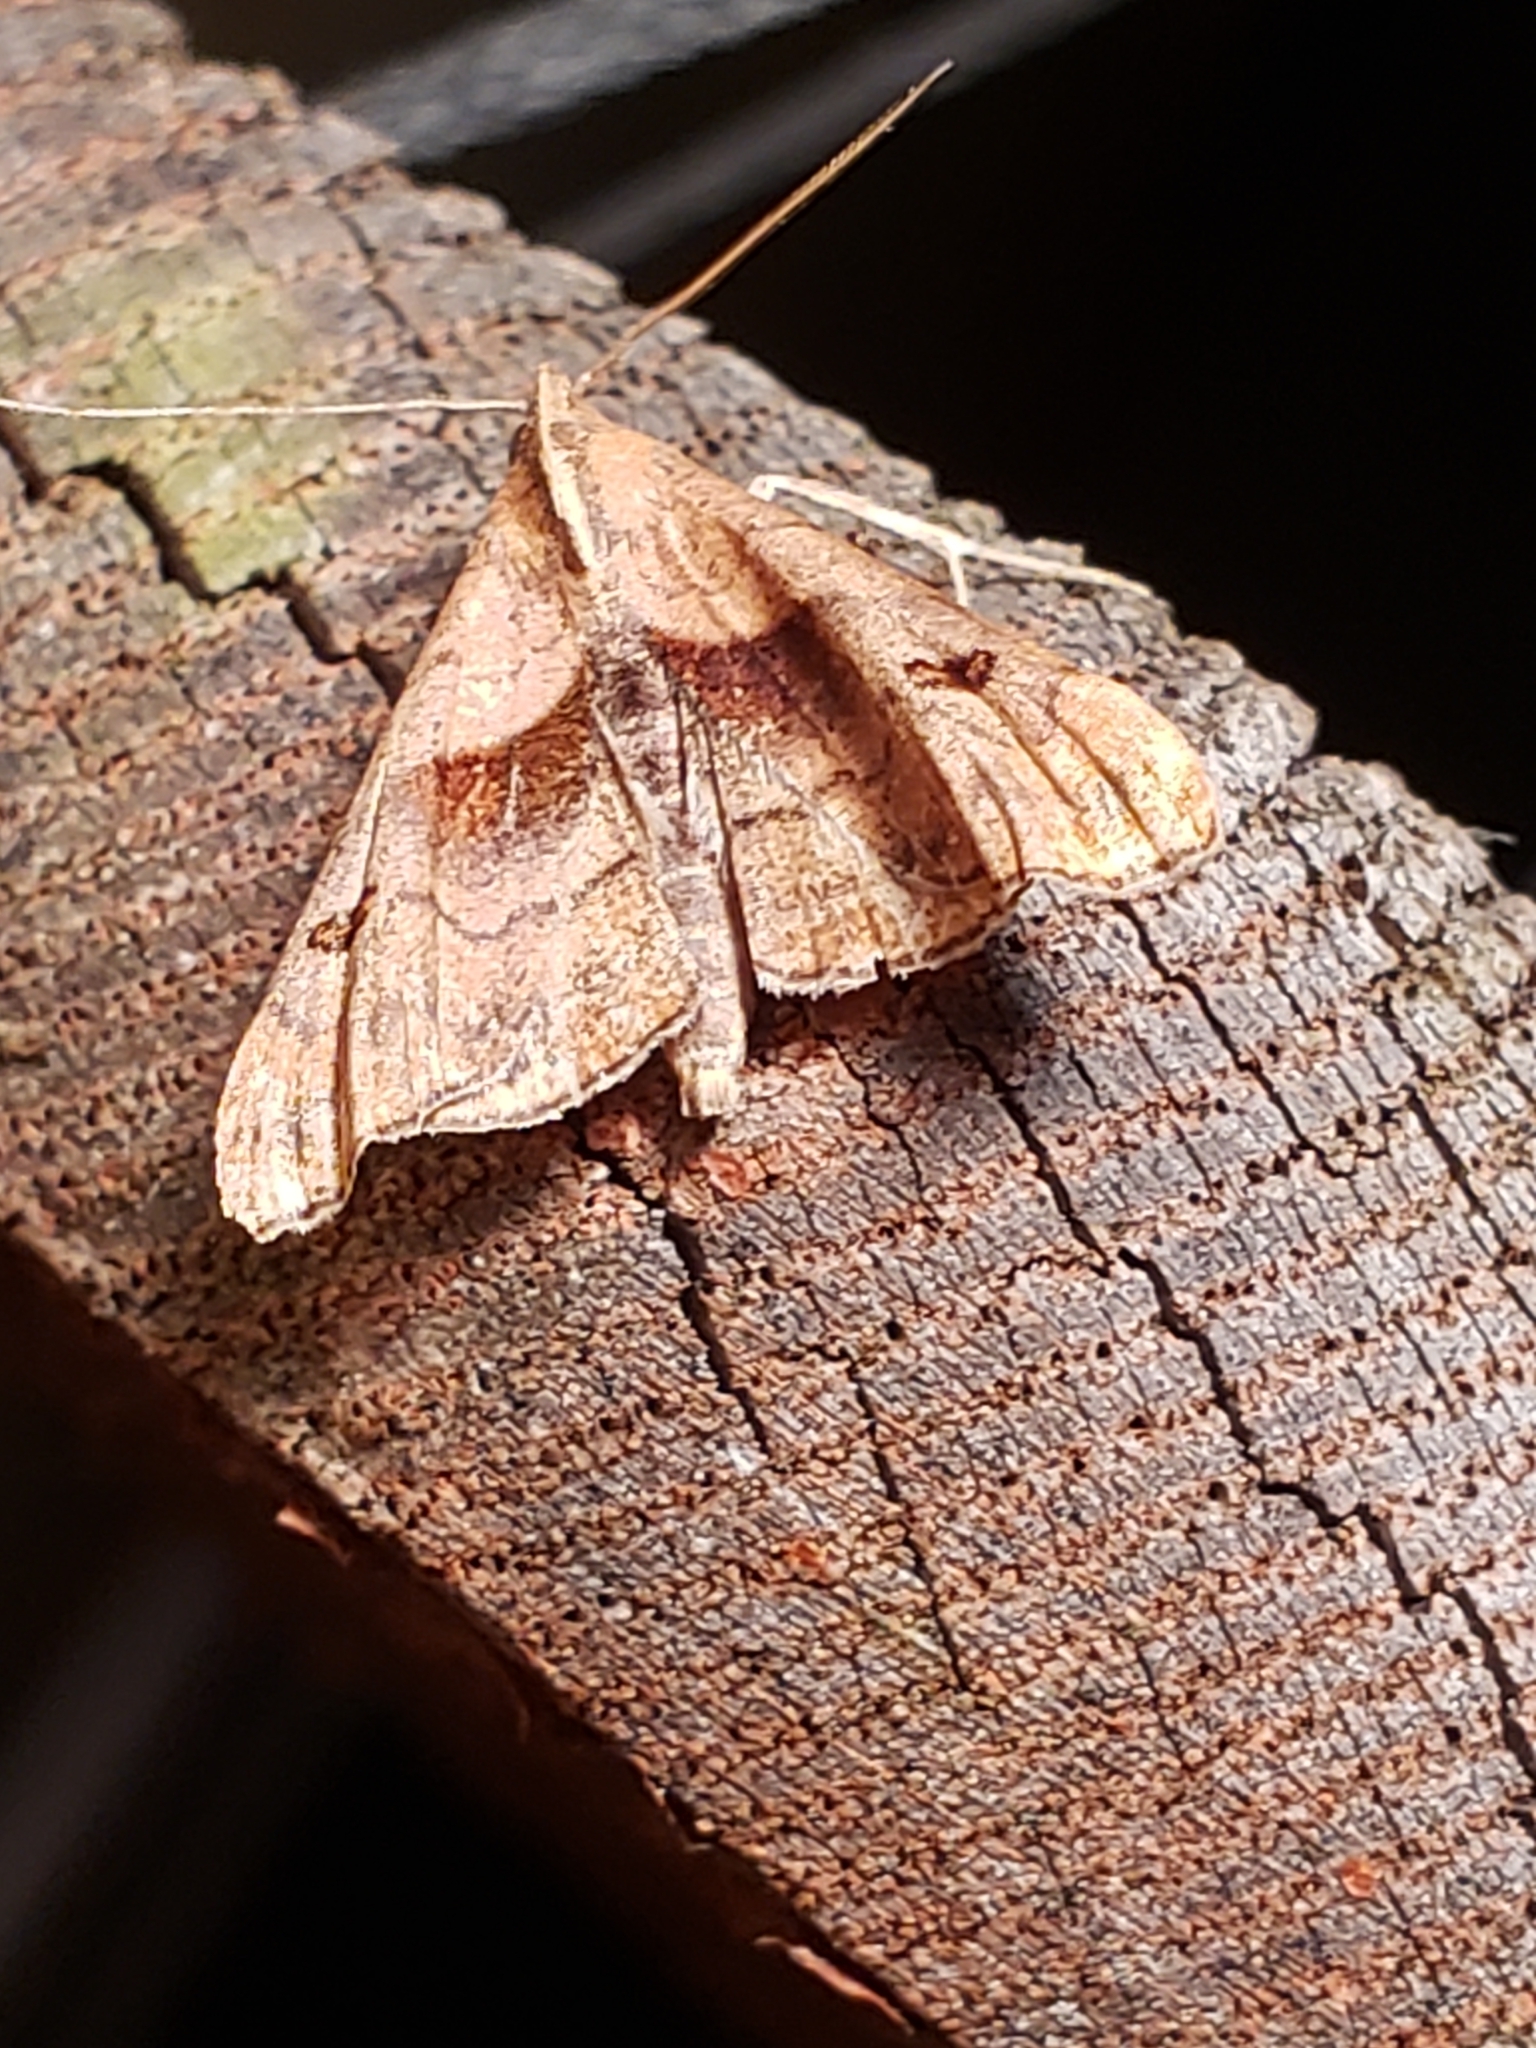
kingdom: Animalia
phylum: Arthropoda
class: Insecta
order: Lepidoptera
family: Erebidae
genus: Palthis
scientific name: Palthis angulalis
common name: Dark-spotted palthis moth
